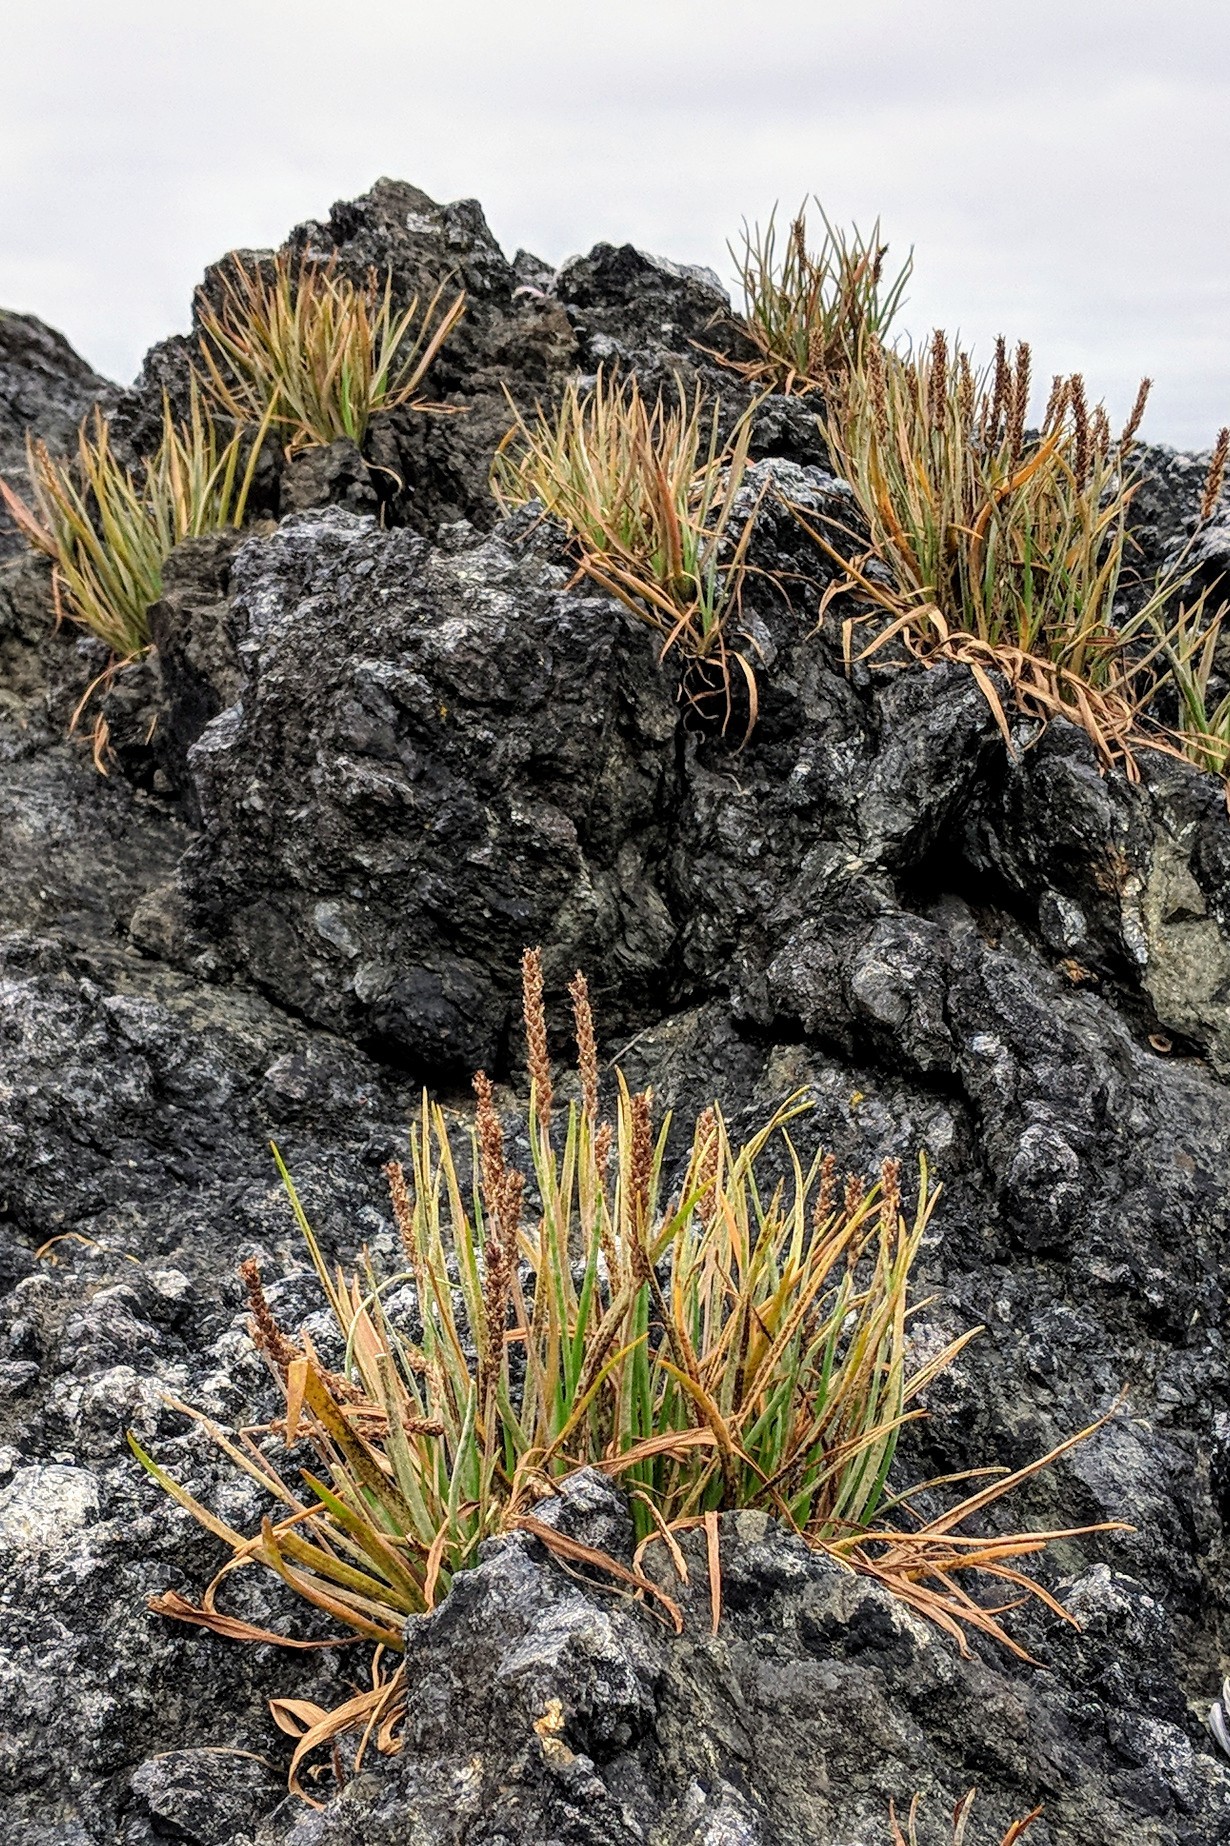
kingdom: Plantae
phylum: Tracheophyta
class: Magnoliopsida
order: Lamiales
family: Plantaginaceae
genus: Plantago
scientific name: Plantago maritima
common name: Sea plantain
